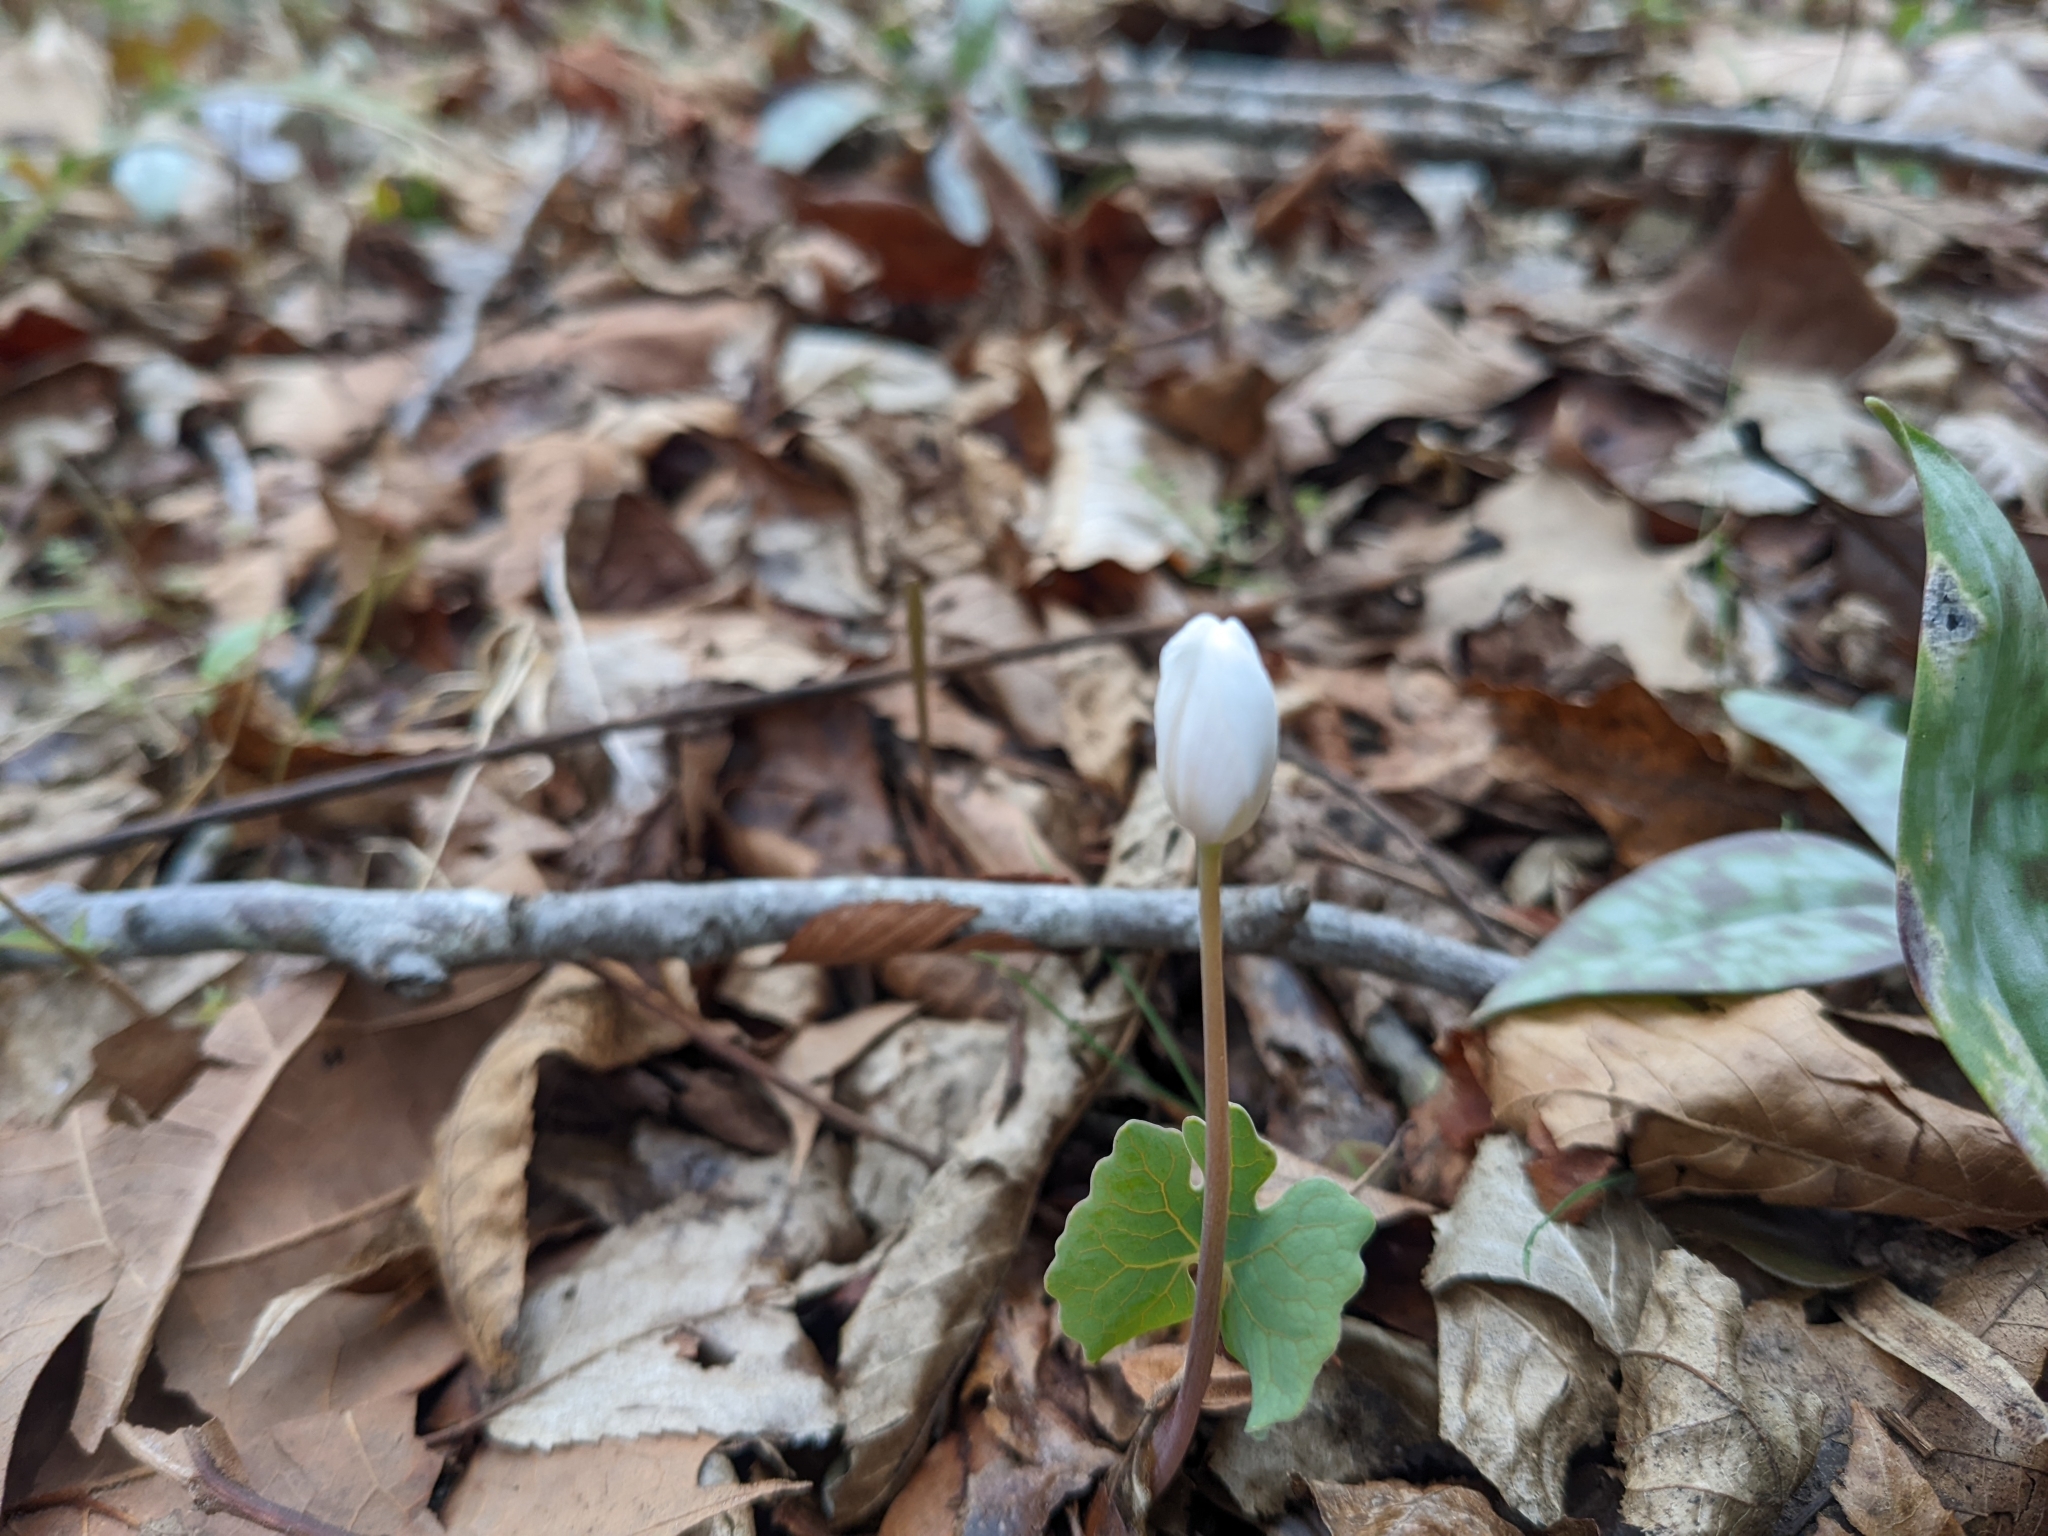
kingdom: Plantae
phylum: Tracheophyta
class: Magnoliopsida
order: Ranunculales
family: Papaveraceae
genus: Sanguinaria
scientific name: Sanguinaria canadensis
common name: Bloodroot
